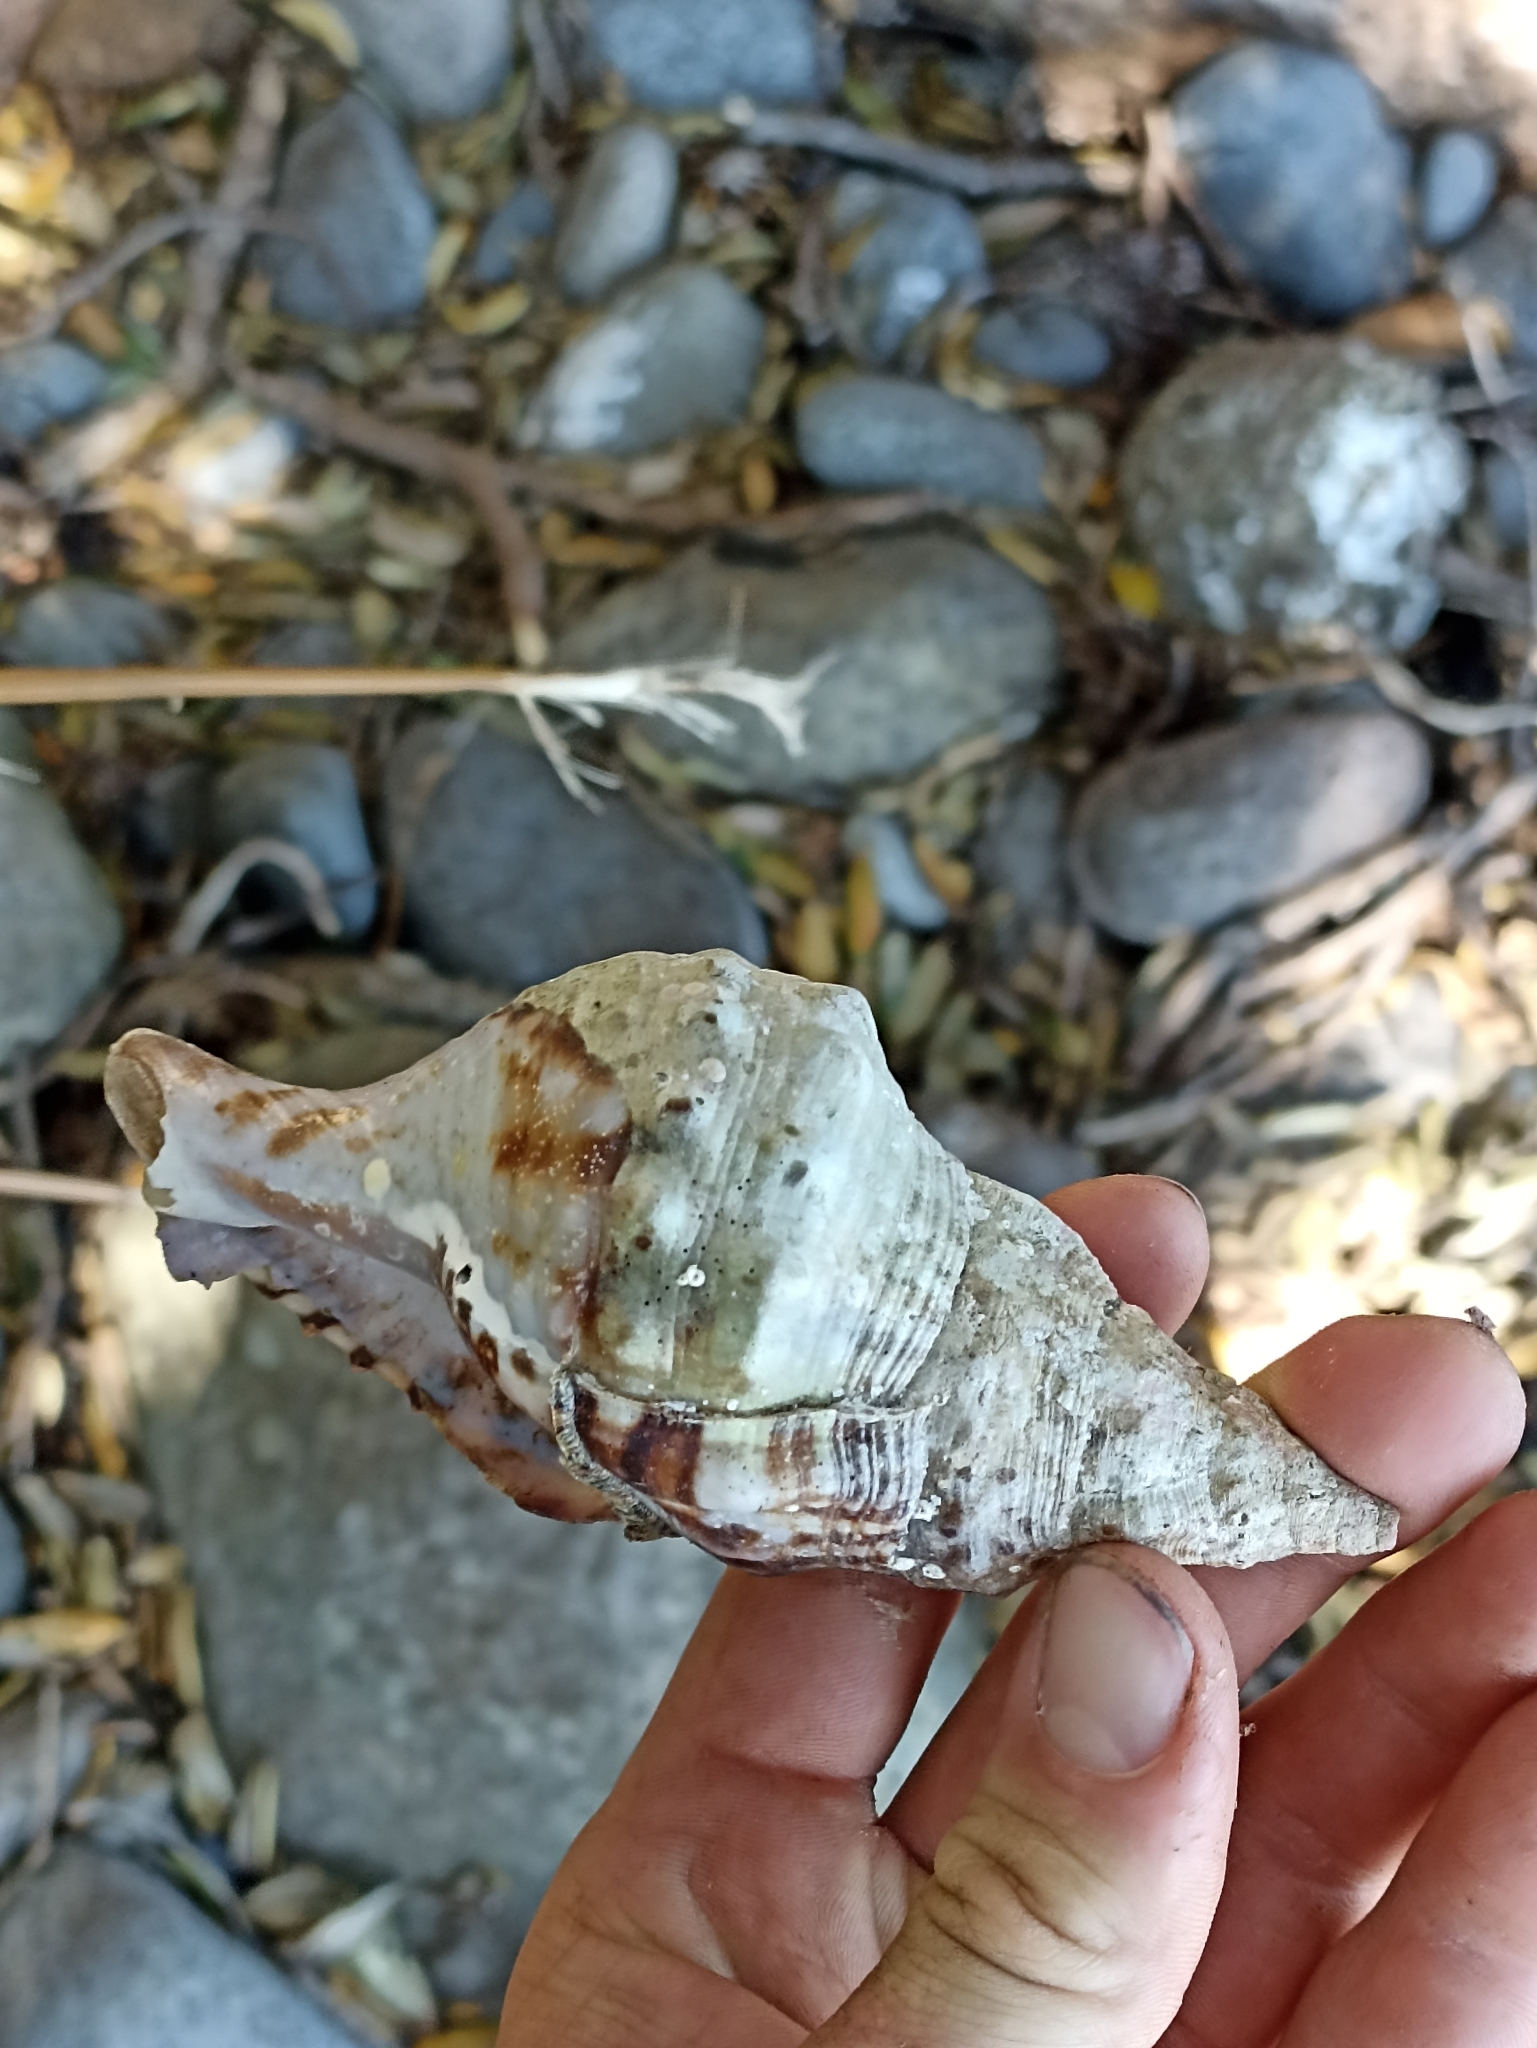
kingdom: Animalia
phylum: Mollusca
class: Gastropoda
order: Littorinimorpha
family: Charoniidae
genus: Charonia
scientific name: Charonia lampas
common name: Knobbed triton
